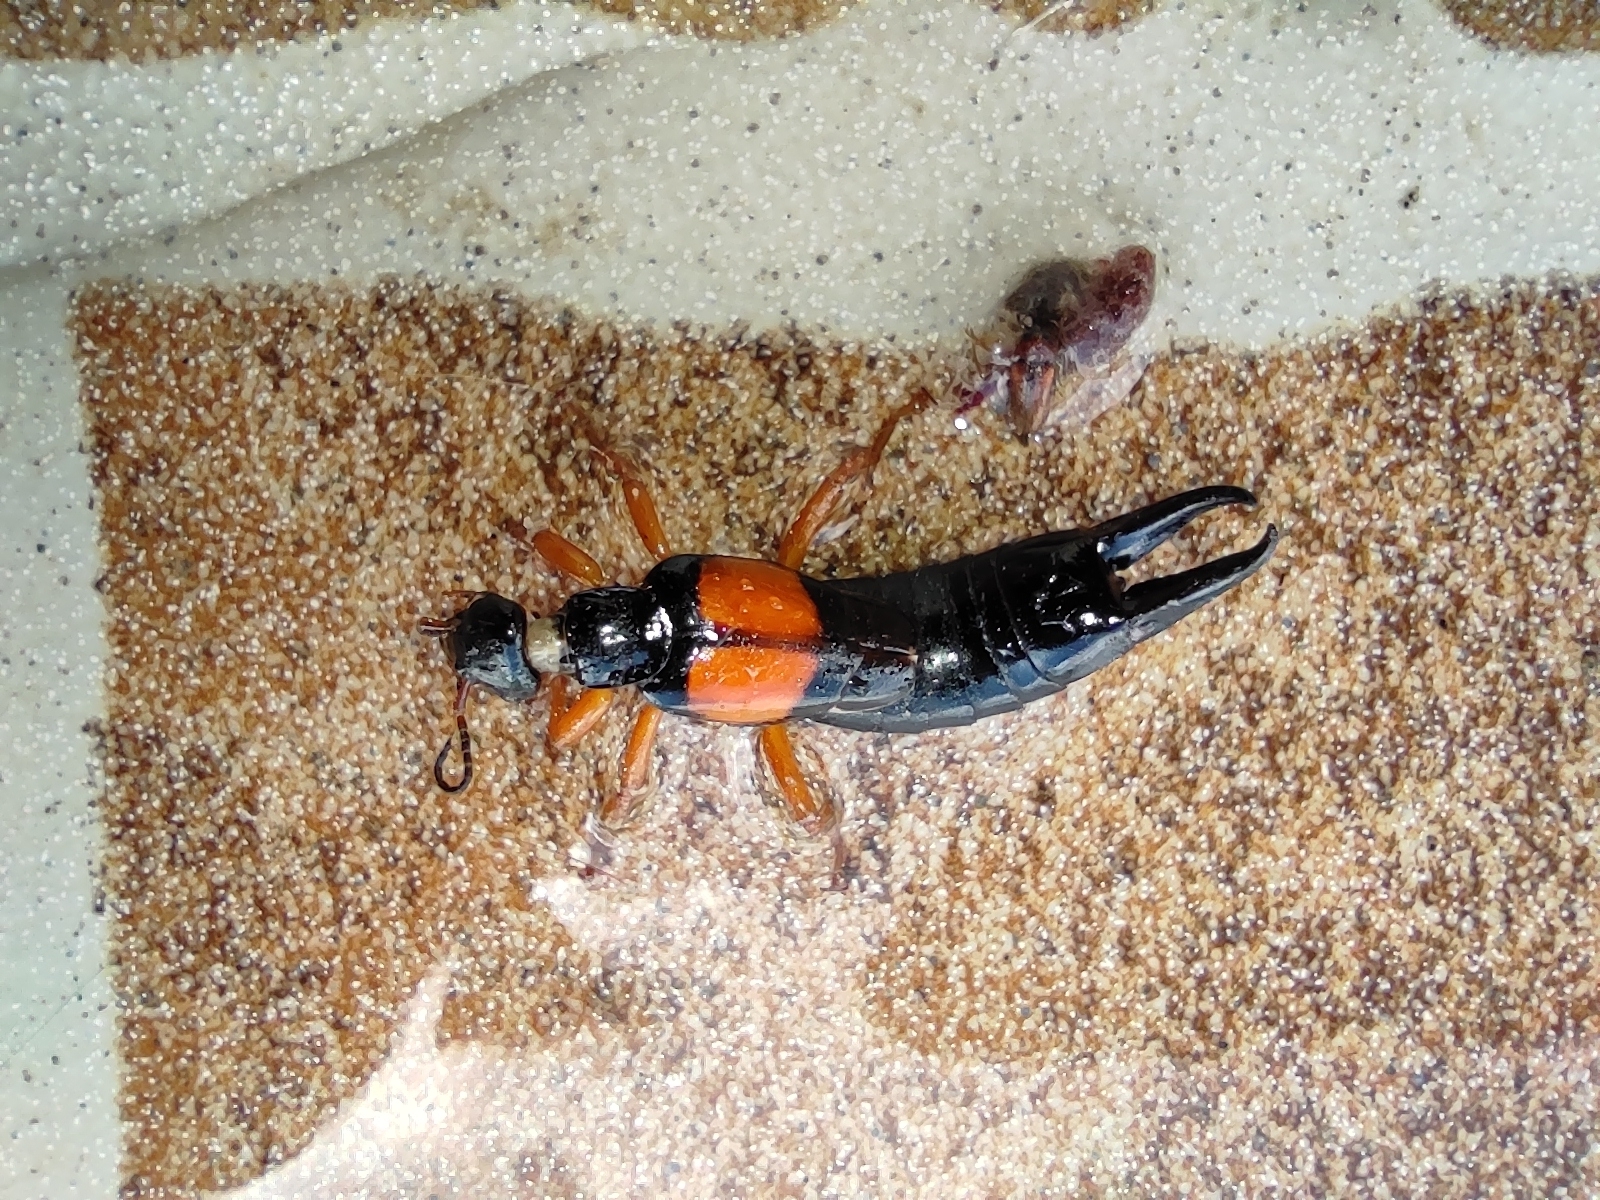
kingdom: Animalia
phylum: Arthropoda
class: Insecta
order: Dermaptera
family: Anisolabididae
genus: Carcinophora
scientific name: Carcinophora americana
